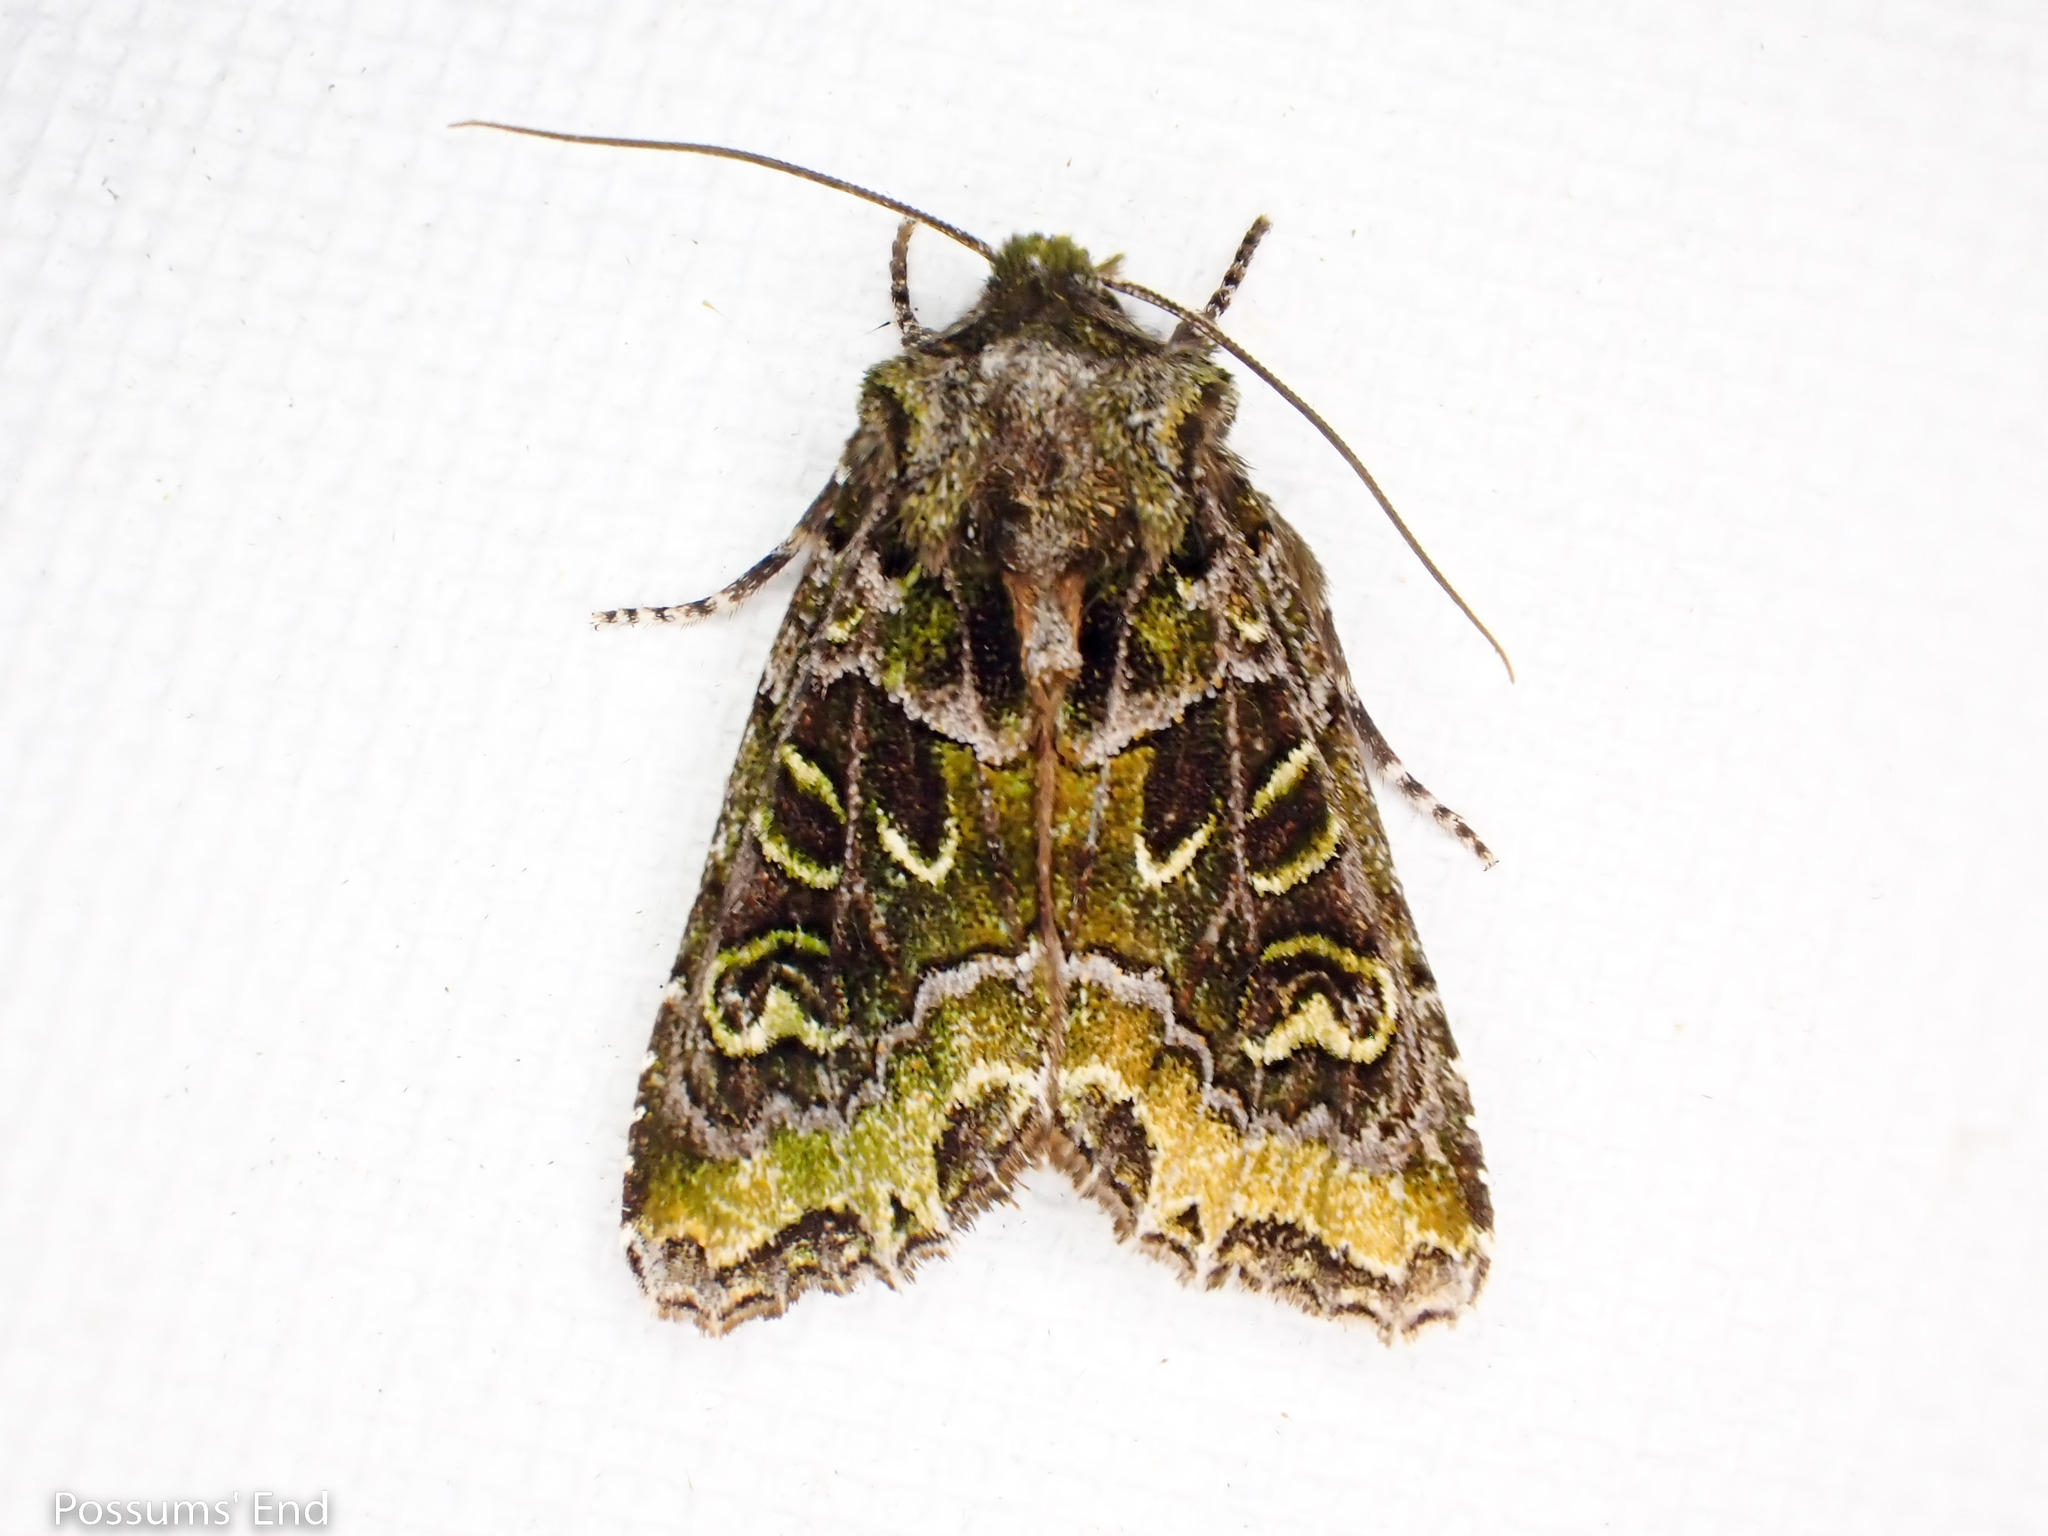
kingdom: Animalia
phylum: Arthropoda
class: Insecta
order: Lepidoptera
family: Noctuidae
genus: Ichneutica
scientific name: Ichneutica chlorodonta
